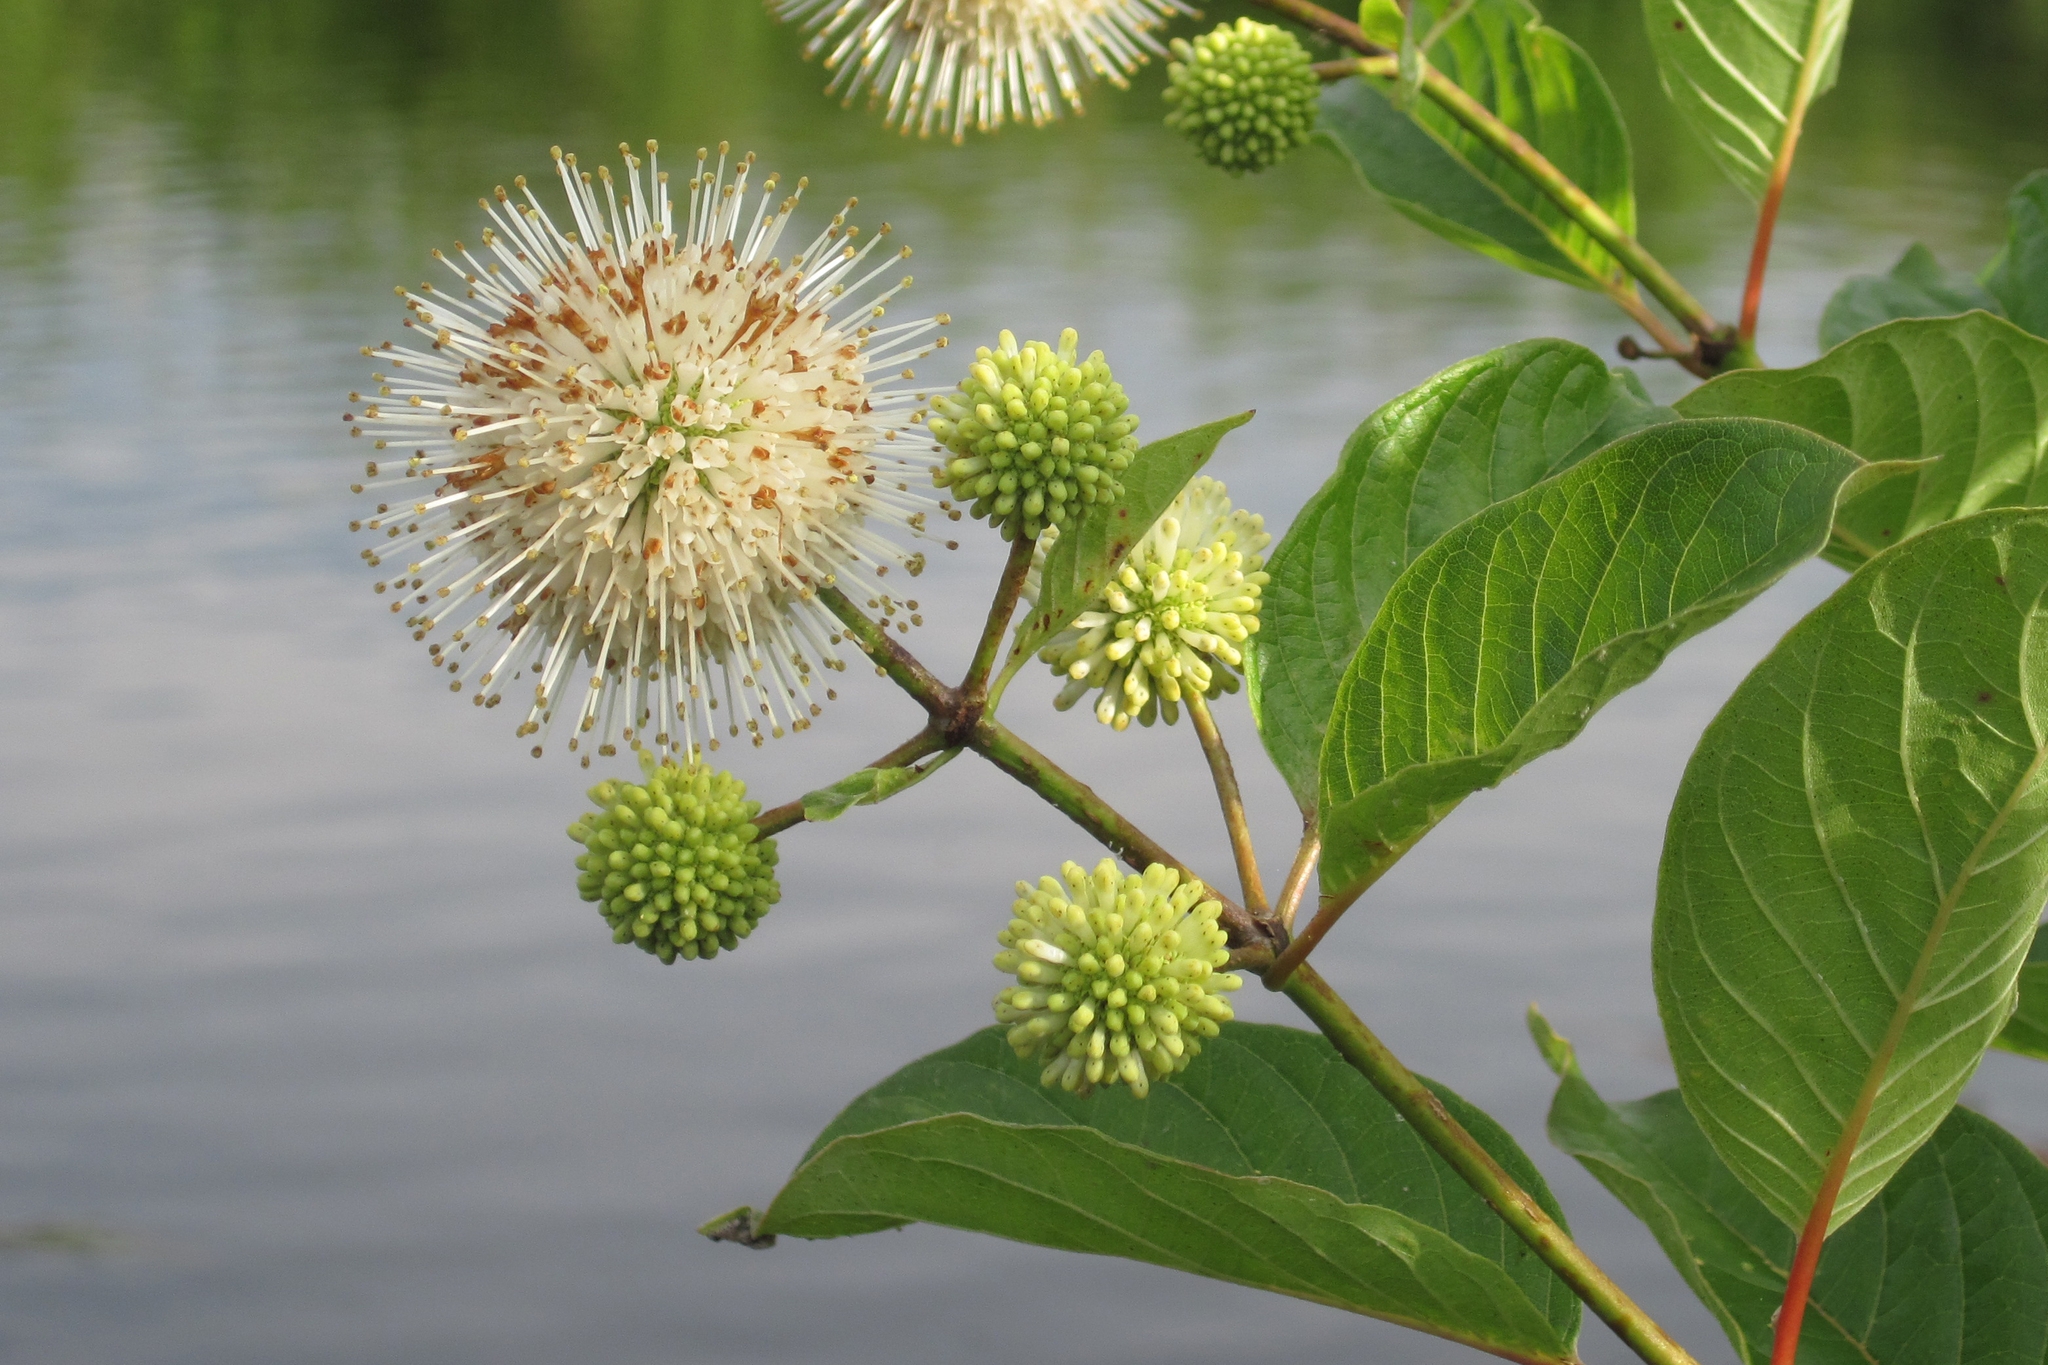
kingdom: Plantae
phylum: Tracheophyta
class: Magnoliopsida
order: Gentianales
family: Rubiaceae
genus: Cephalanthus
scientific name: Cephalanthus occidentalis
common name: Button-willow
